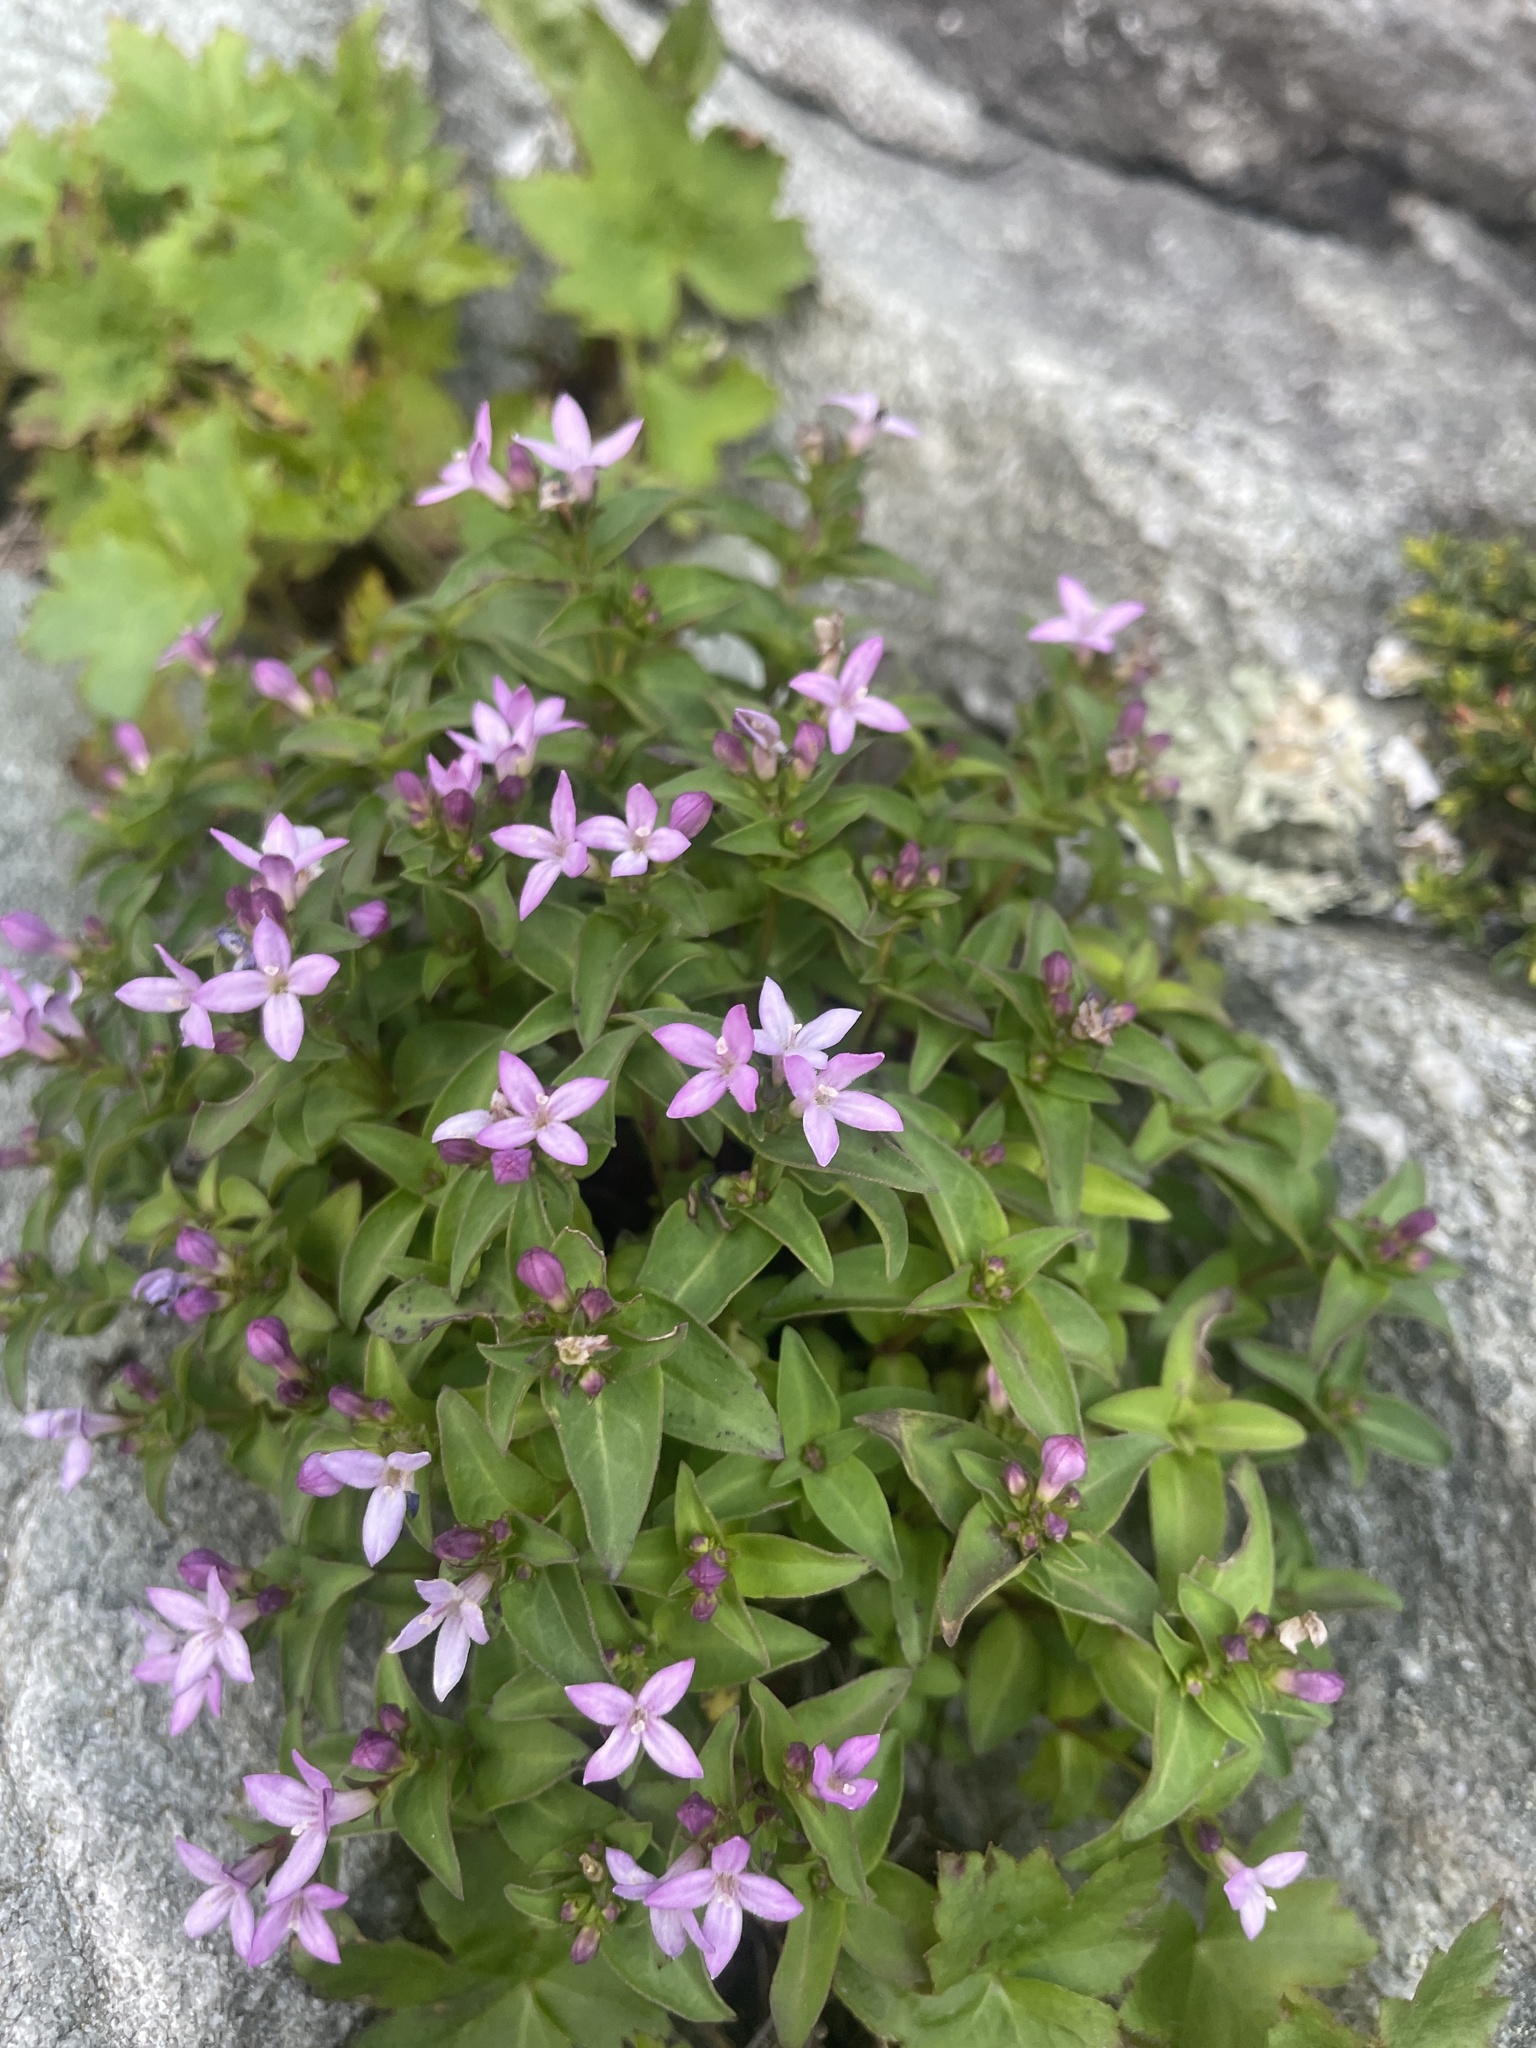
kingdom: Plantae
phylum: Tracheophyta
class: Magnoliopsida
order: Gentianales
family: Rubiaceae
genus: Houstonia
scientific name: Houstonia purpurea
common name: Summer bluet
